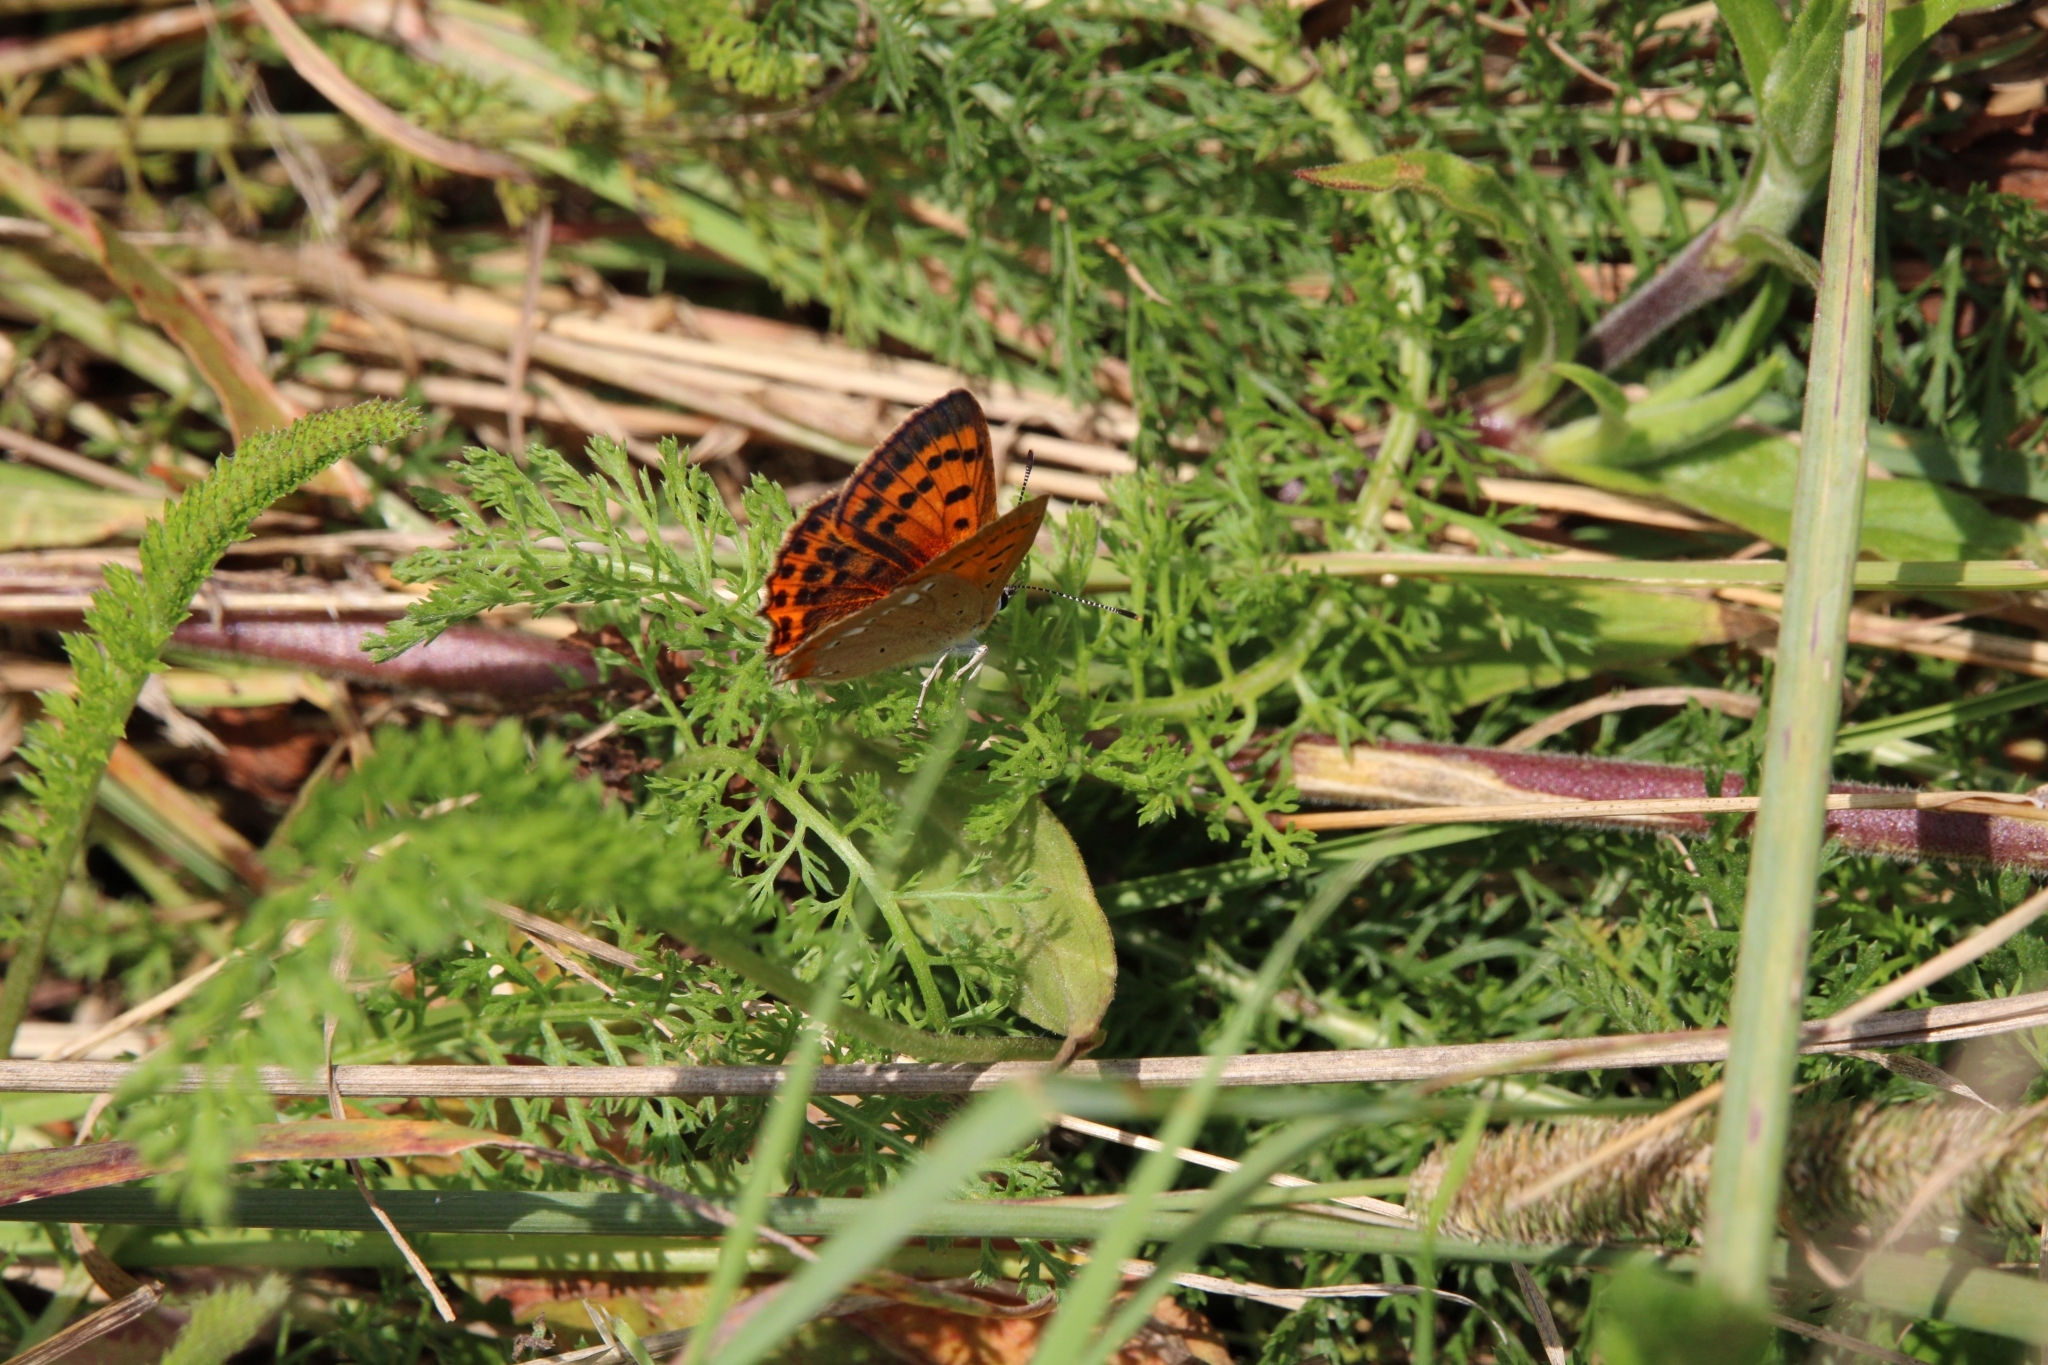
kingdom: Animalia
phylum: Arthropoda
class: Insecta
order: Lepidoptera
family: Lycaenidae
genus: Lycaena
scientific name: Lycaena virgaureae
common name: Scarce copper
